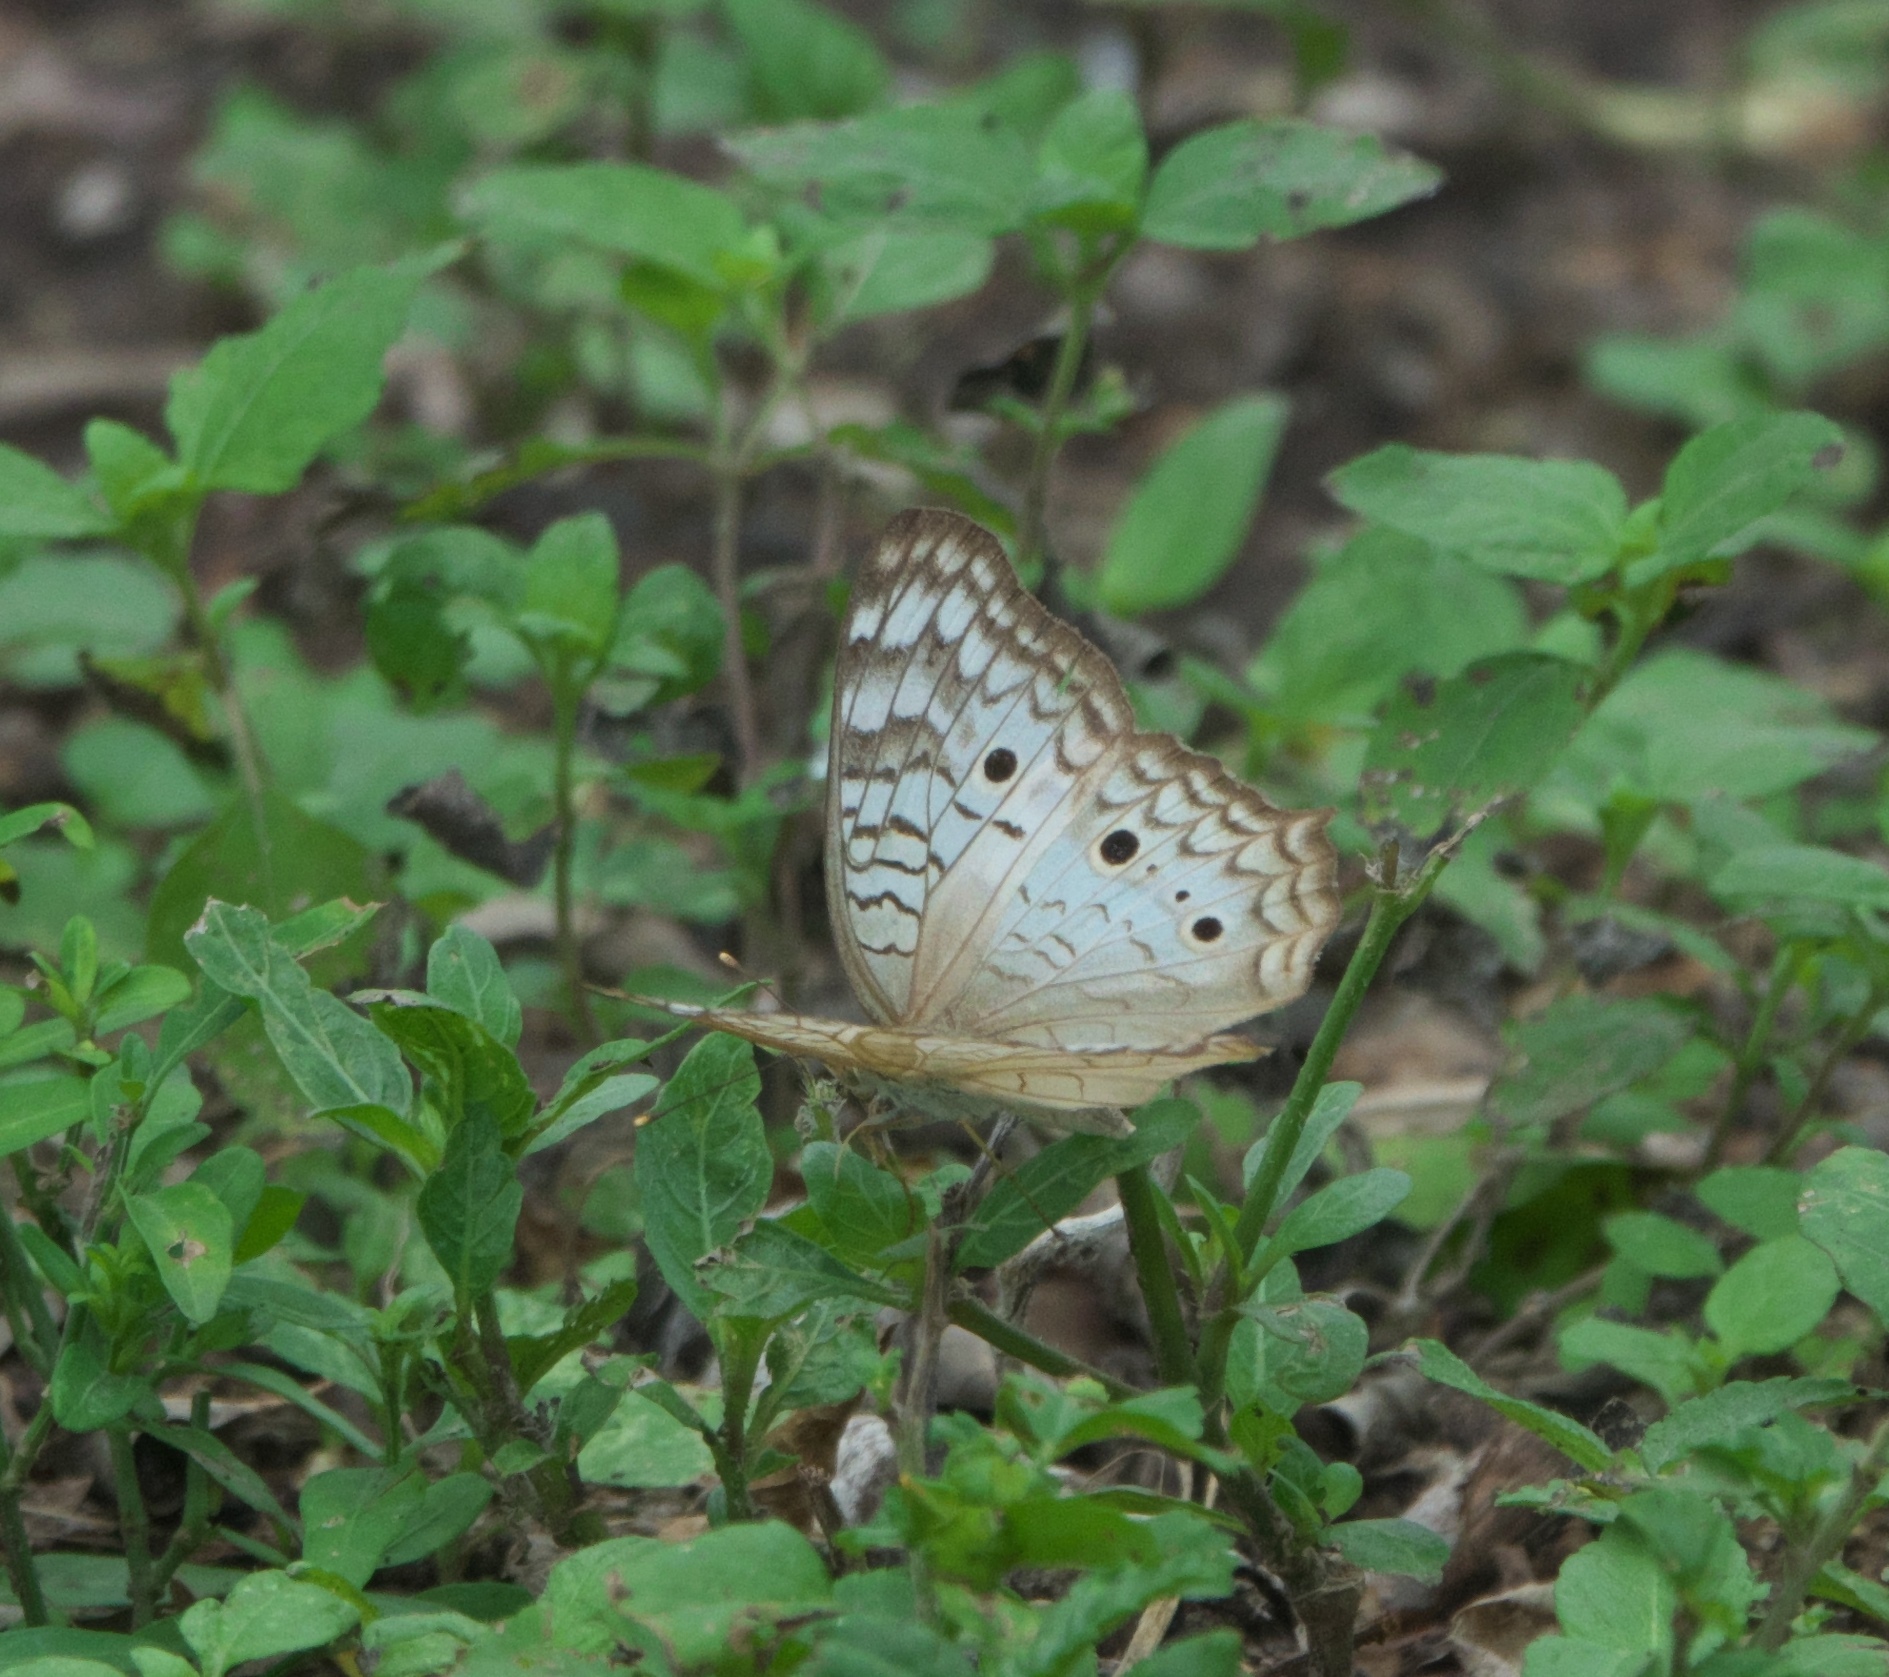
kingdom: Animalia
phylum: Arthropoda
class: Insecta
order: Lepidoptera
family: Nymphalidae
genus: Anartia
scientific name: Anartia jatrophae
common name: White peacock
